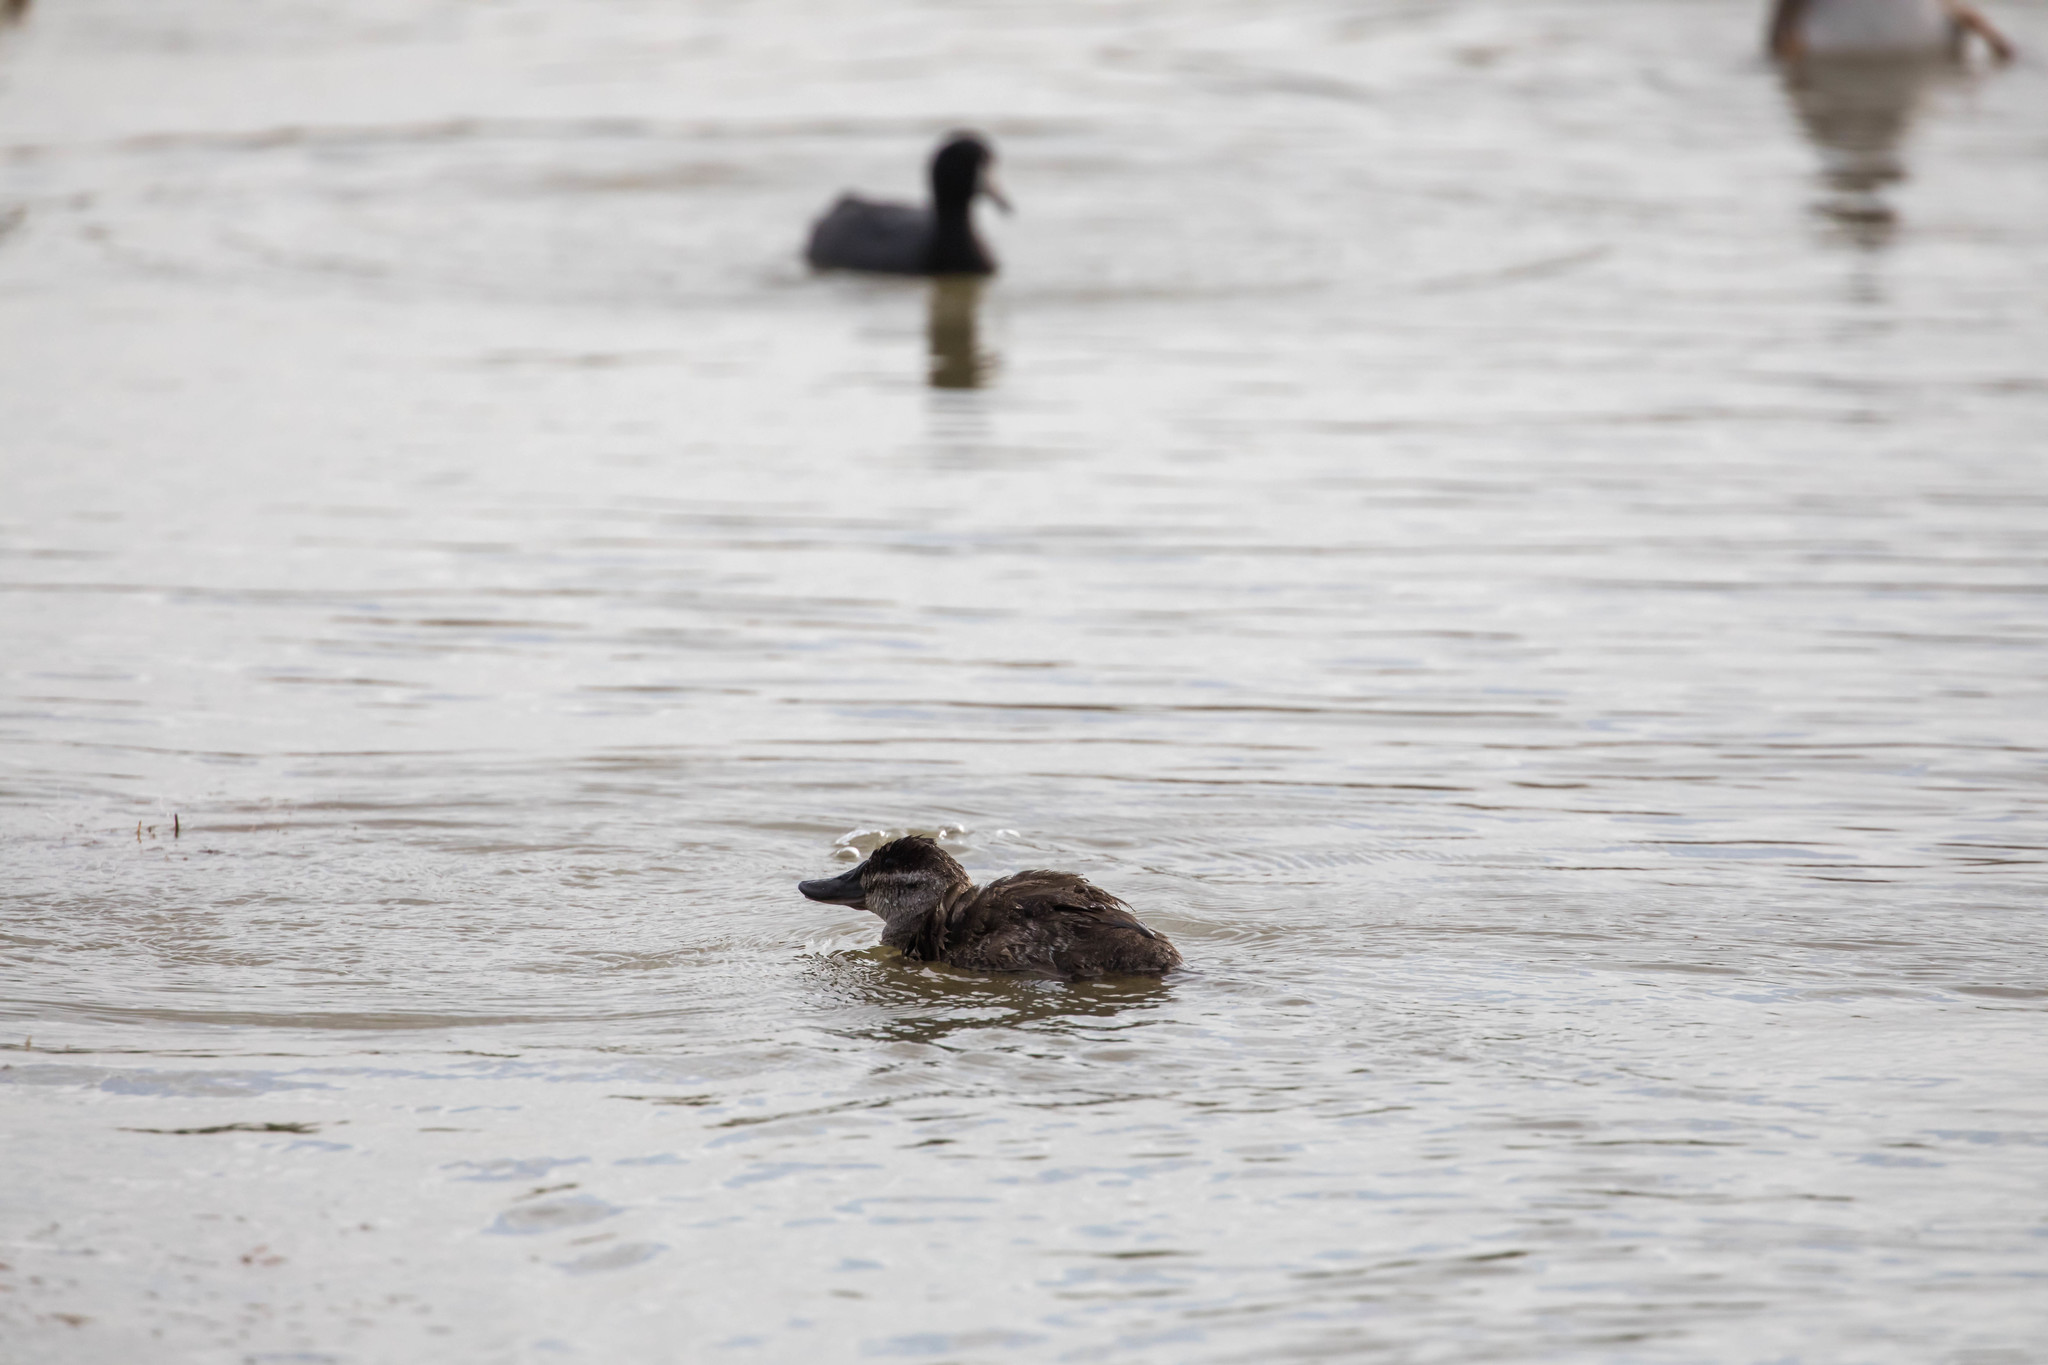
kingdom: Animalia
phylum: Chordata
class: Aves
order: Anseriformes
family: Anatidae
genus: Oxyura
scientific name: Oxyura jamaicensis
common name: Ruddy duck
